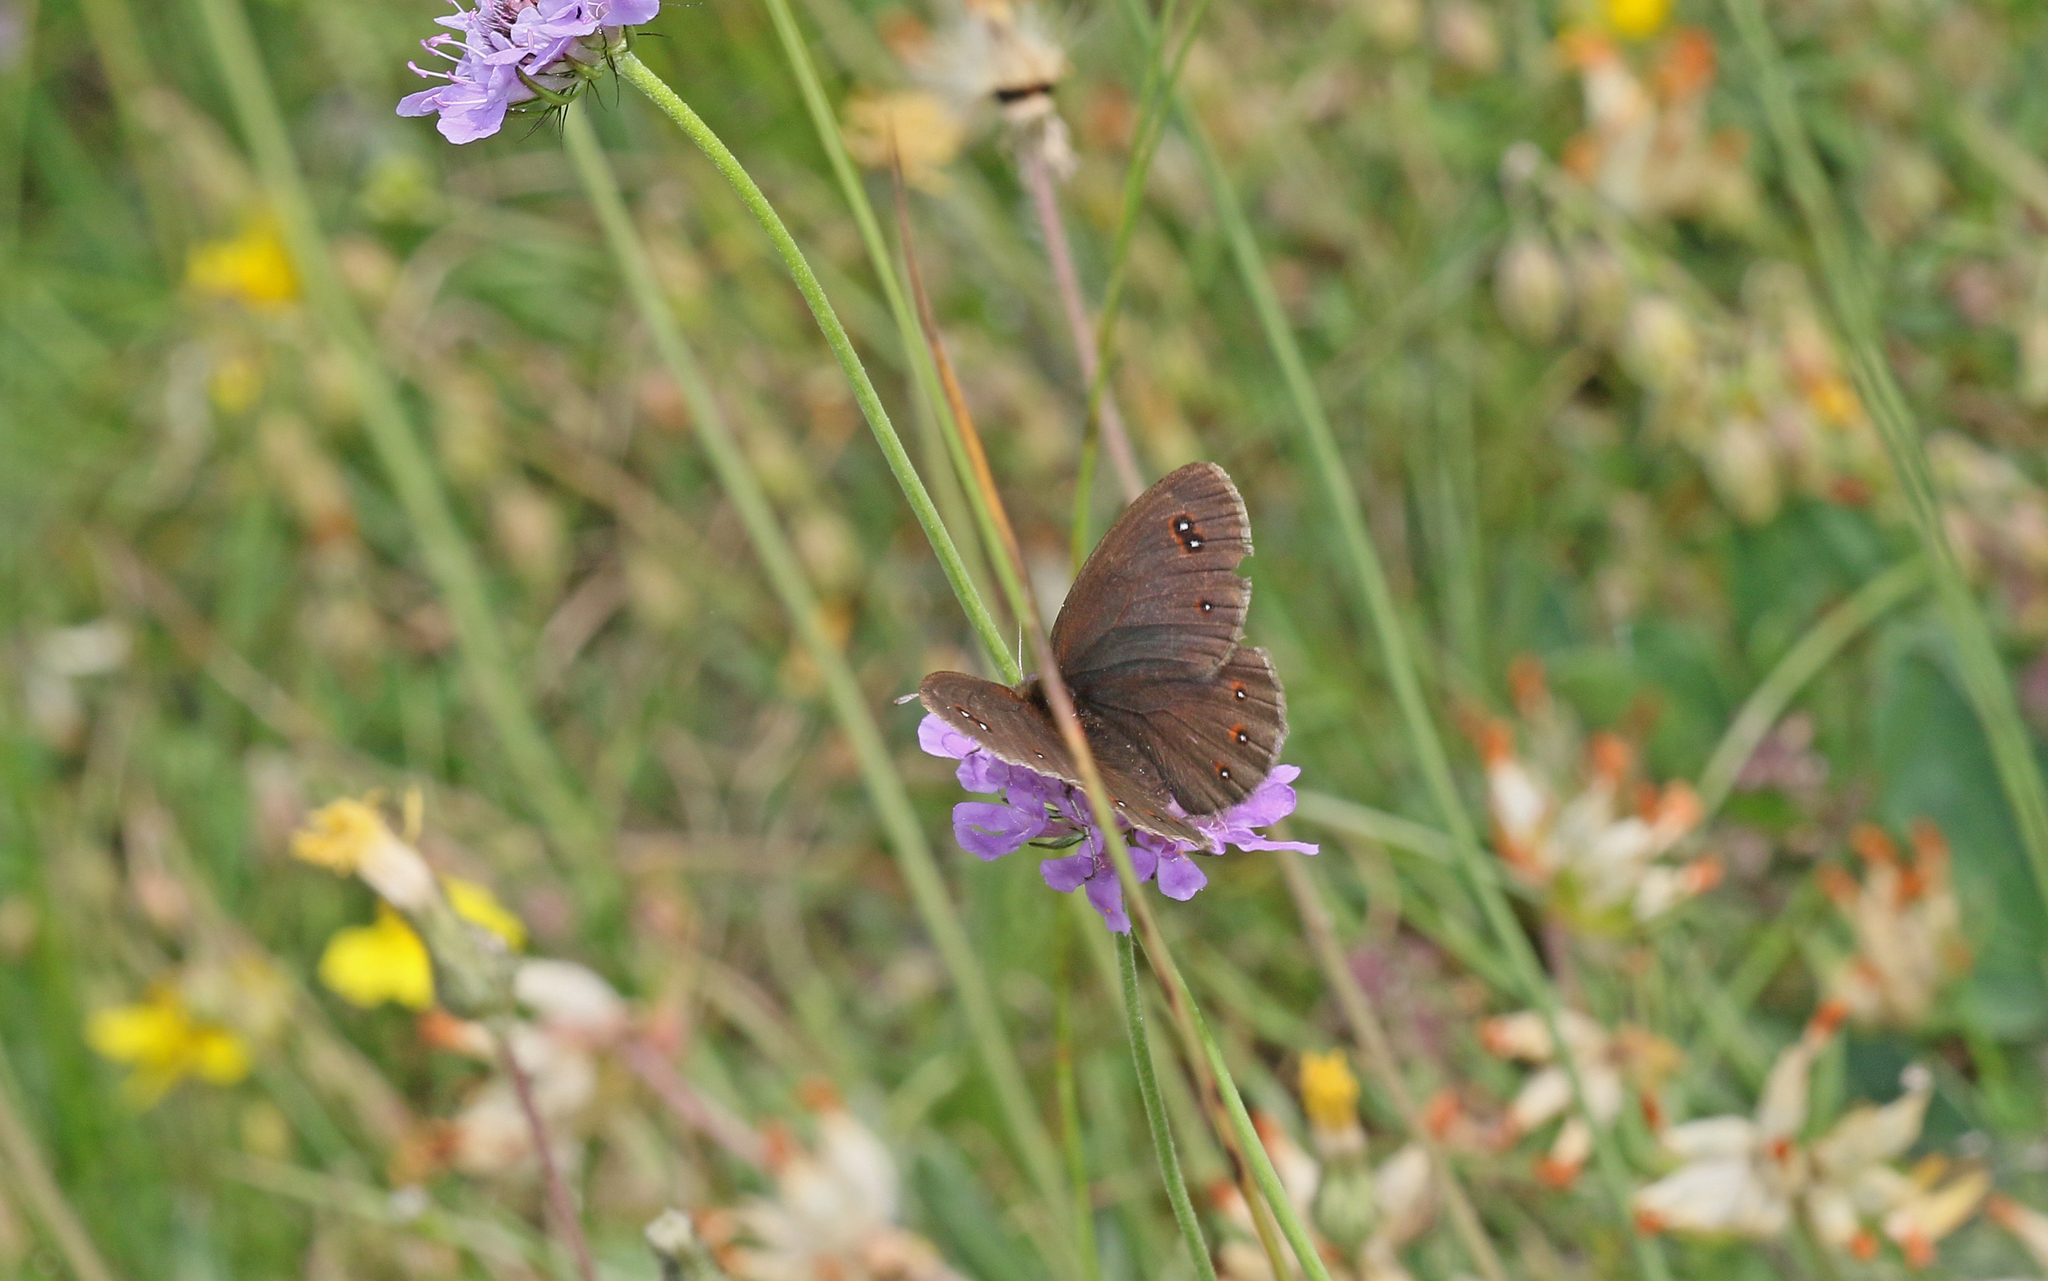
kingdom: Animalia
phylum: Arthropoda
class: Insecta
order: Lepidoptera
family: Nymphalidae
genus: Erebia
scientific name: Erebia meolans
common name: Piedmont ringlet
